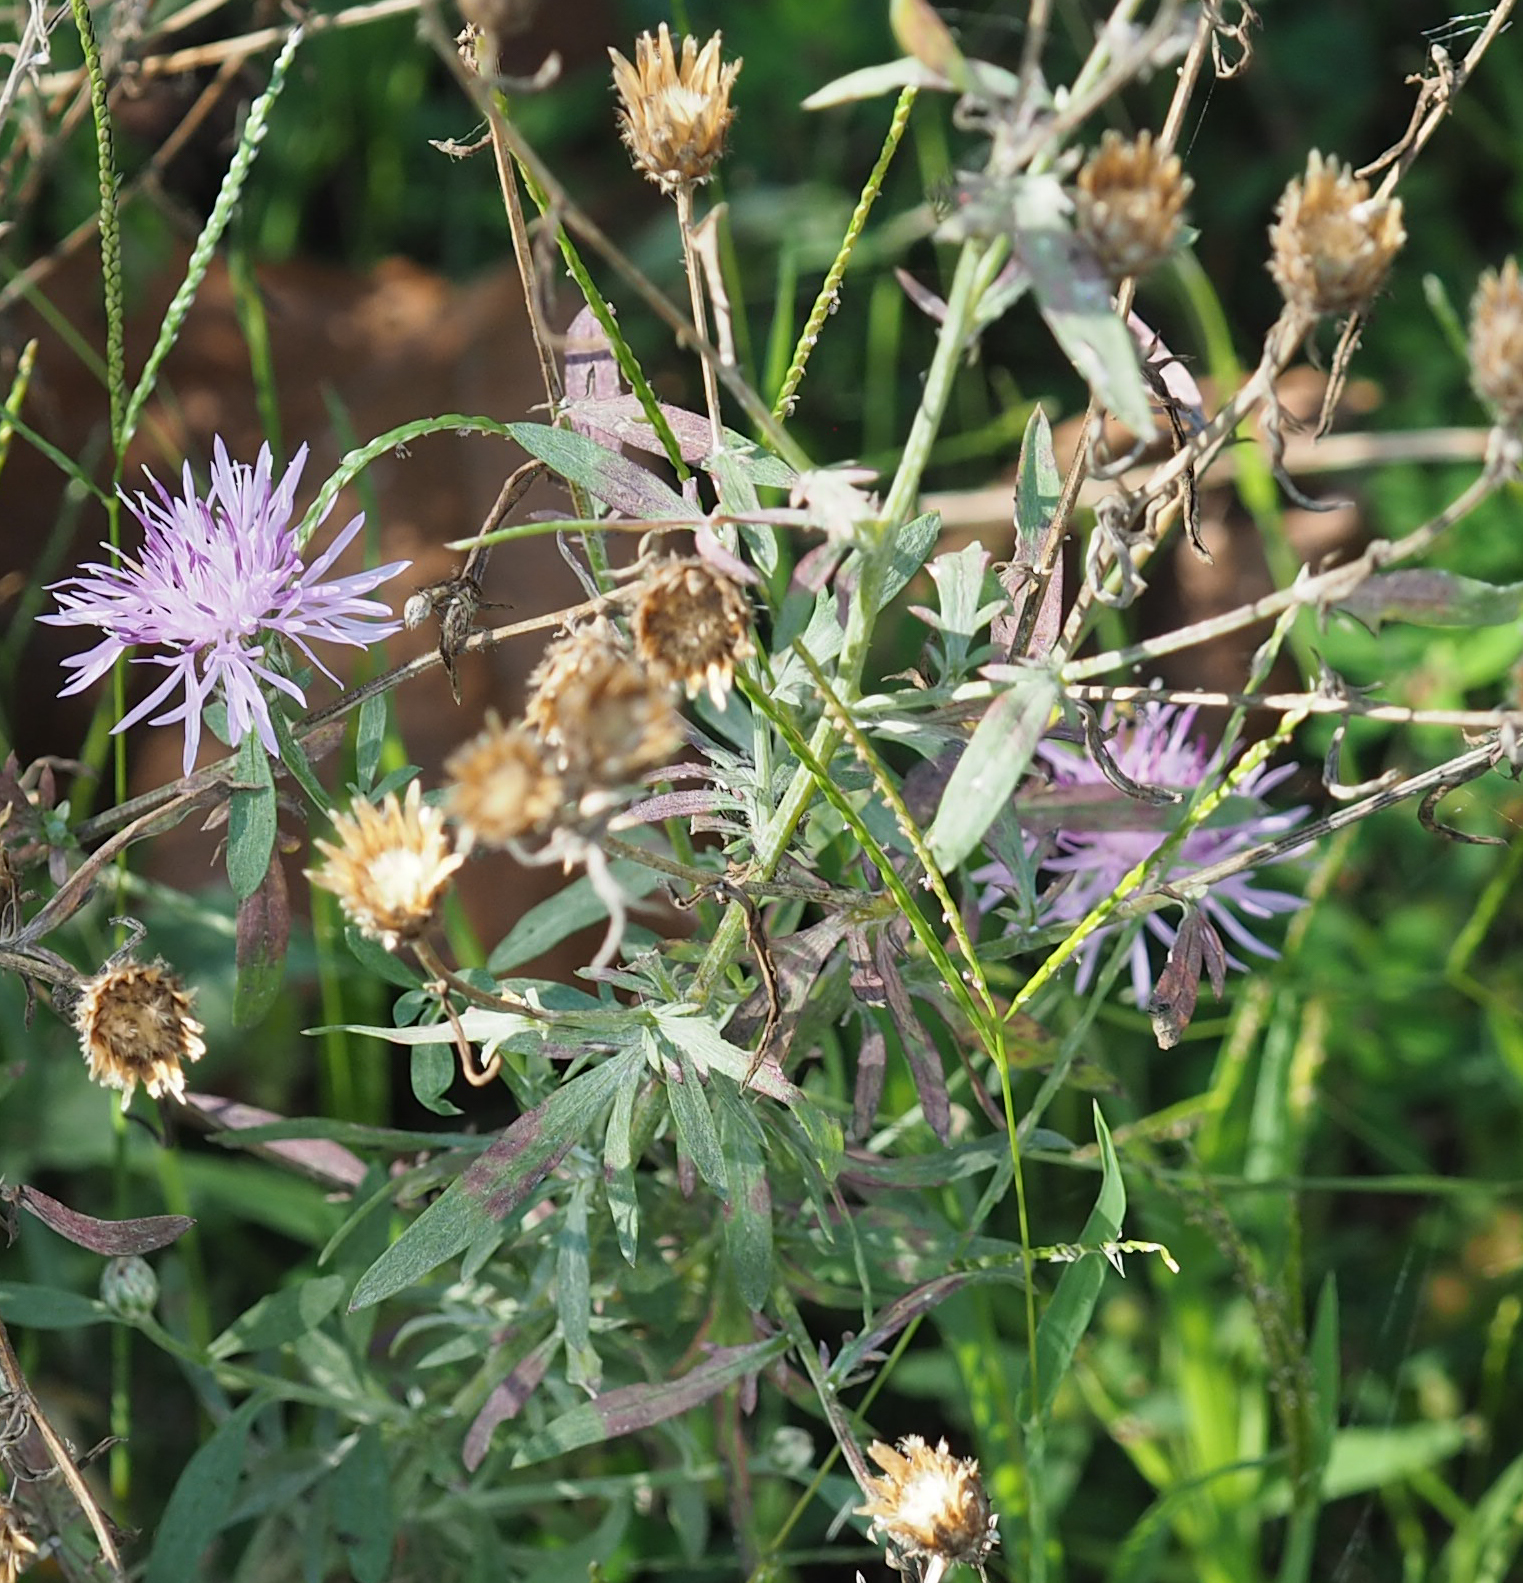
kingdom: Plantae
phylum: Tracheophyta
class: Magnoliopsida
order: Asterales
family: Asteraceae
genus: Centaurea
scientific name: Centaurea stoebe
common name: Spotted knapweed
